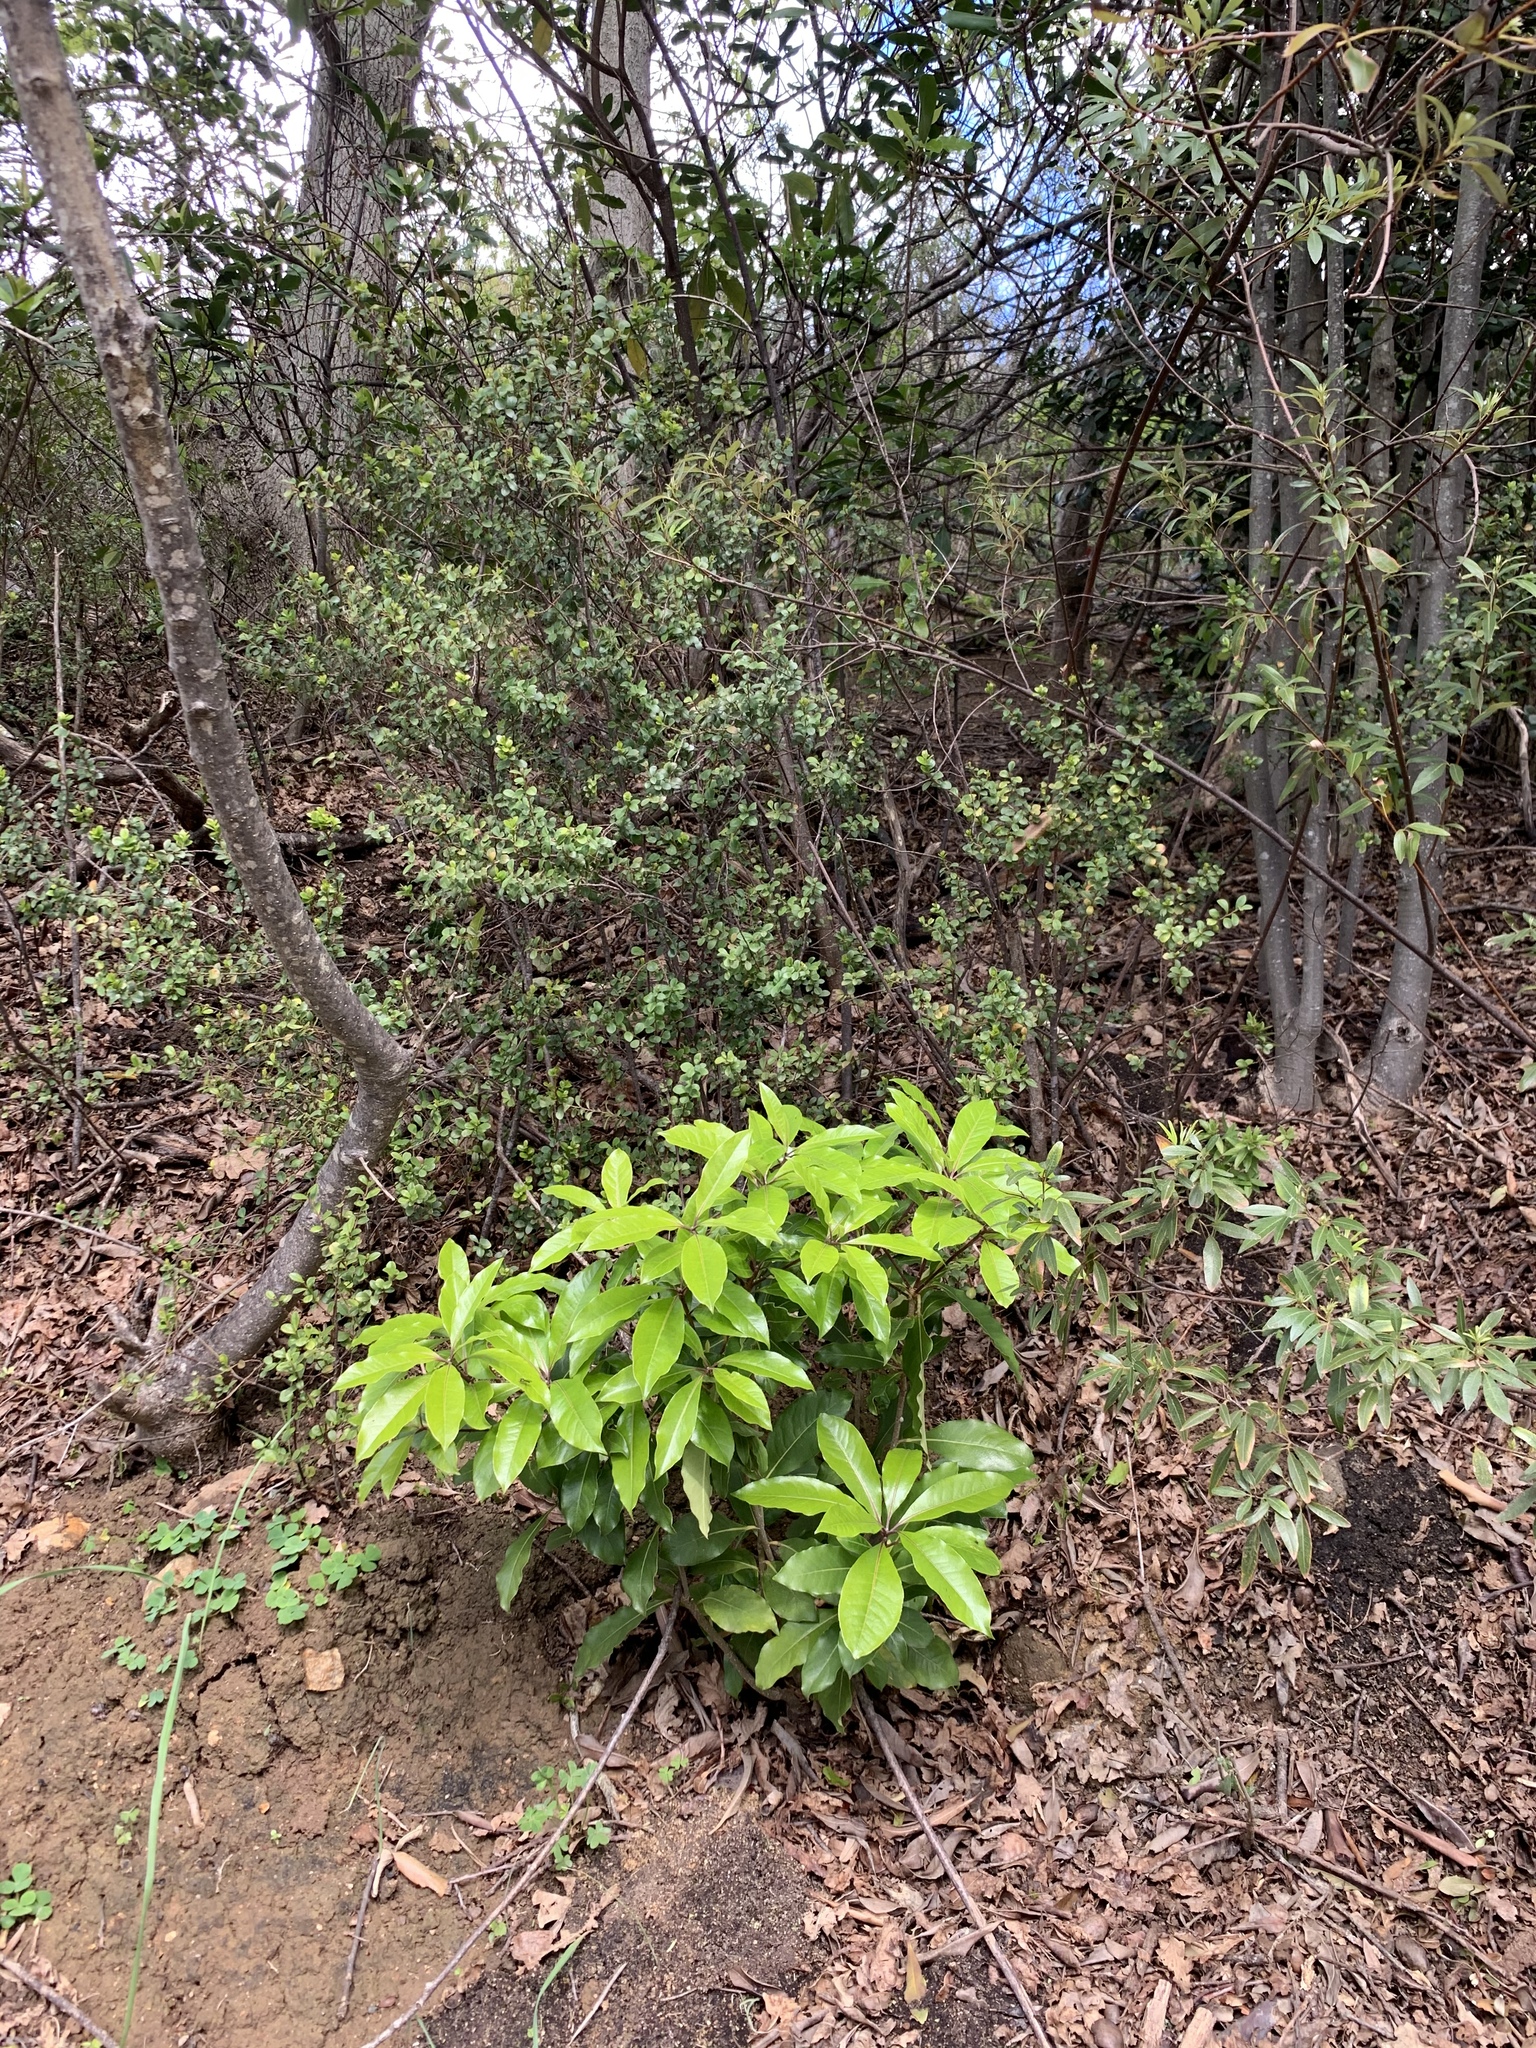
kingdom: Plantae
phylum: Tracheophyta
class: Magnoliopsida
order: Apiales
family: Pittosporaceae
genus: Pittosporum
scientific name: Pittosporum undulatum
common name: Australian cheesewood
